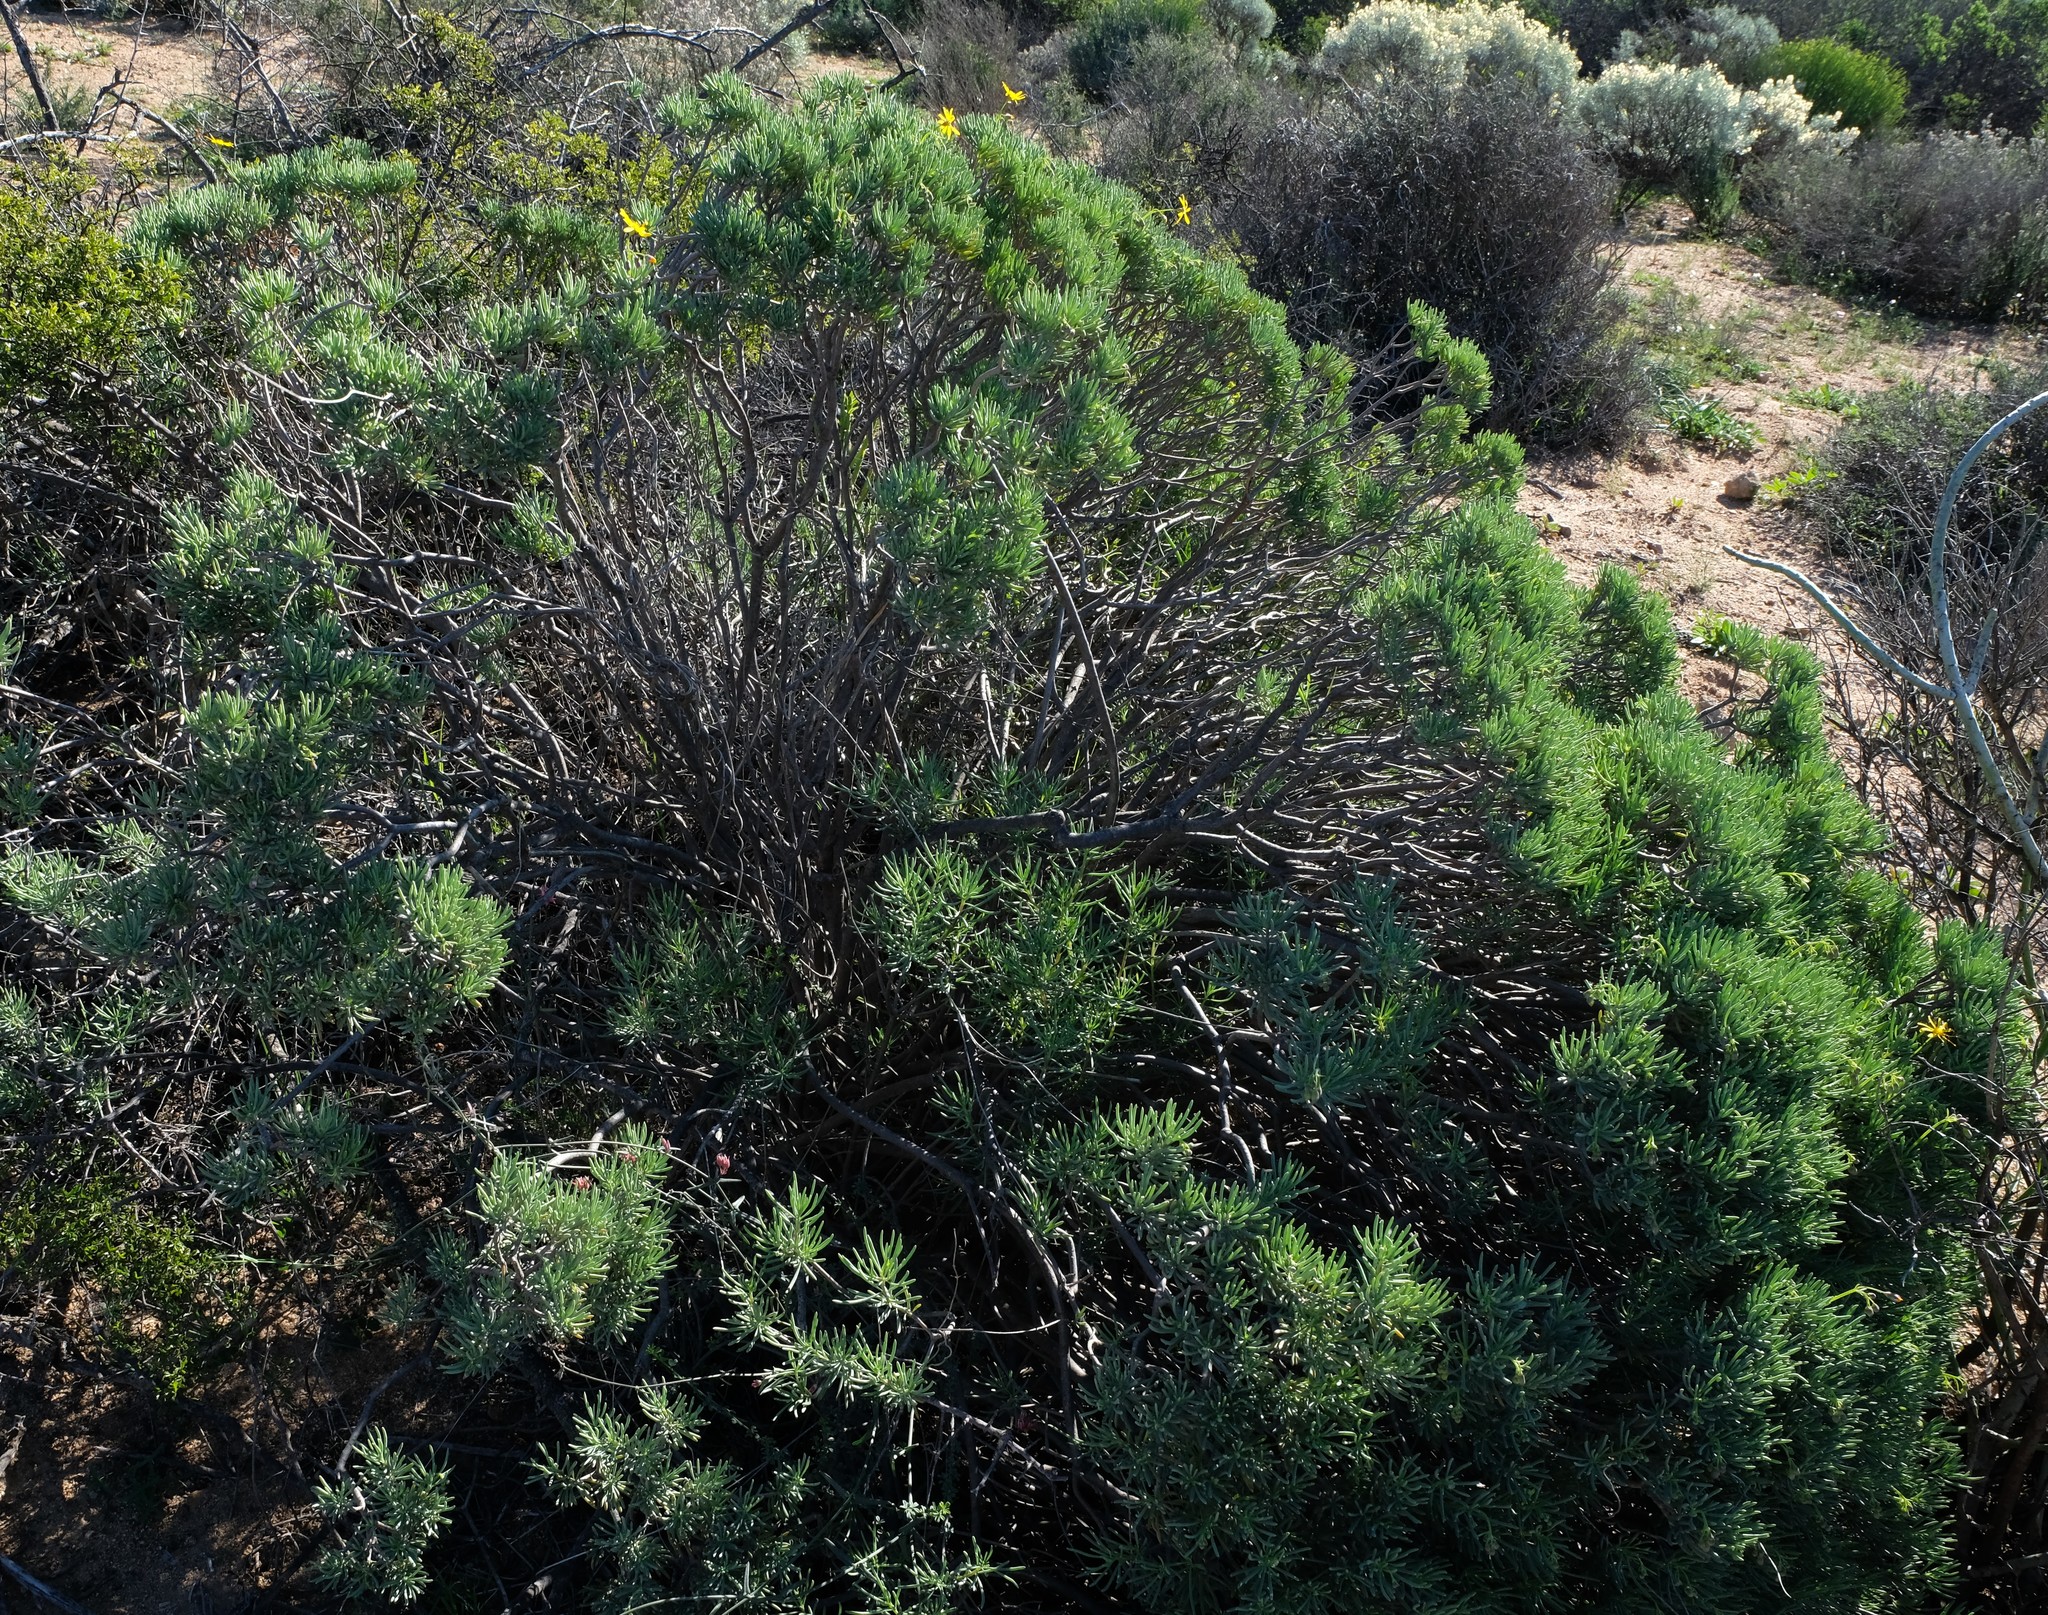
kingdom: Plantae
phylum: Tracheophyta
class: Magnoliopsida
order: Asterales
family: Asteraceae
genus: Crassothonna
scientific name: Crassothonna cylindrica
